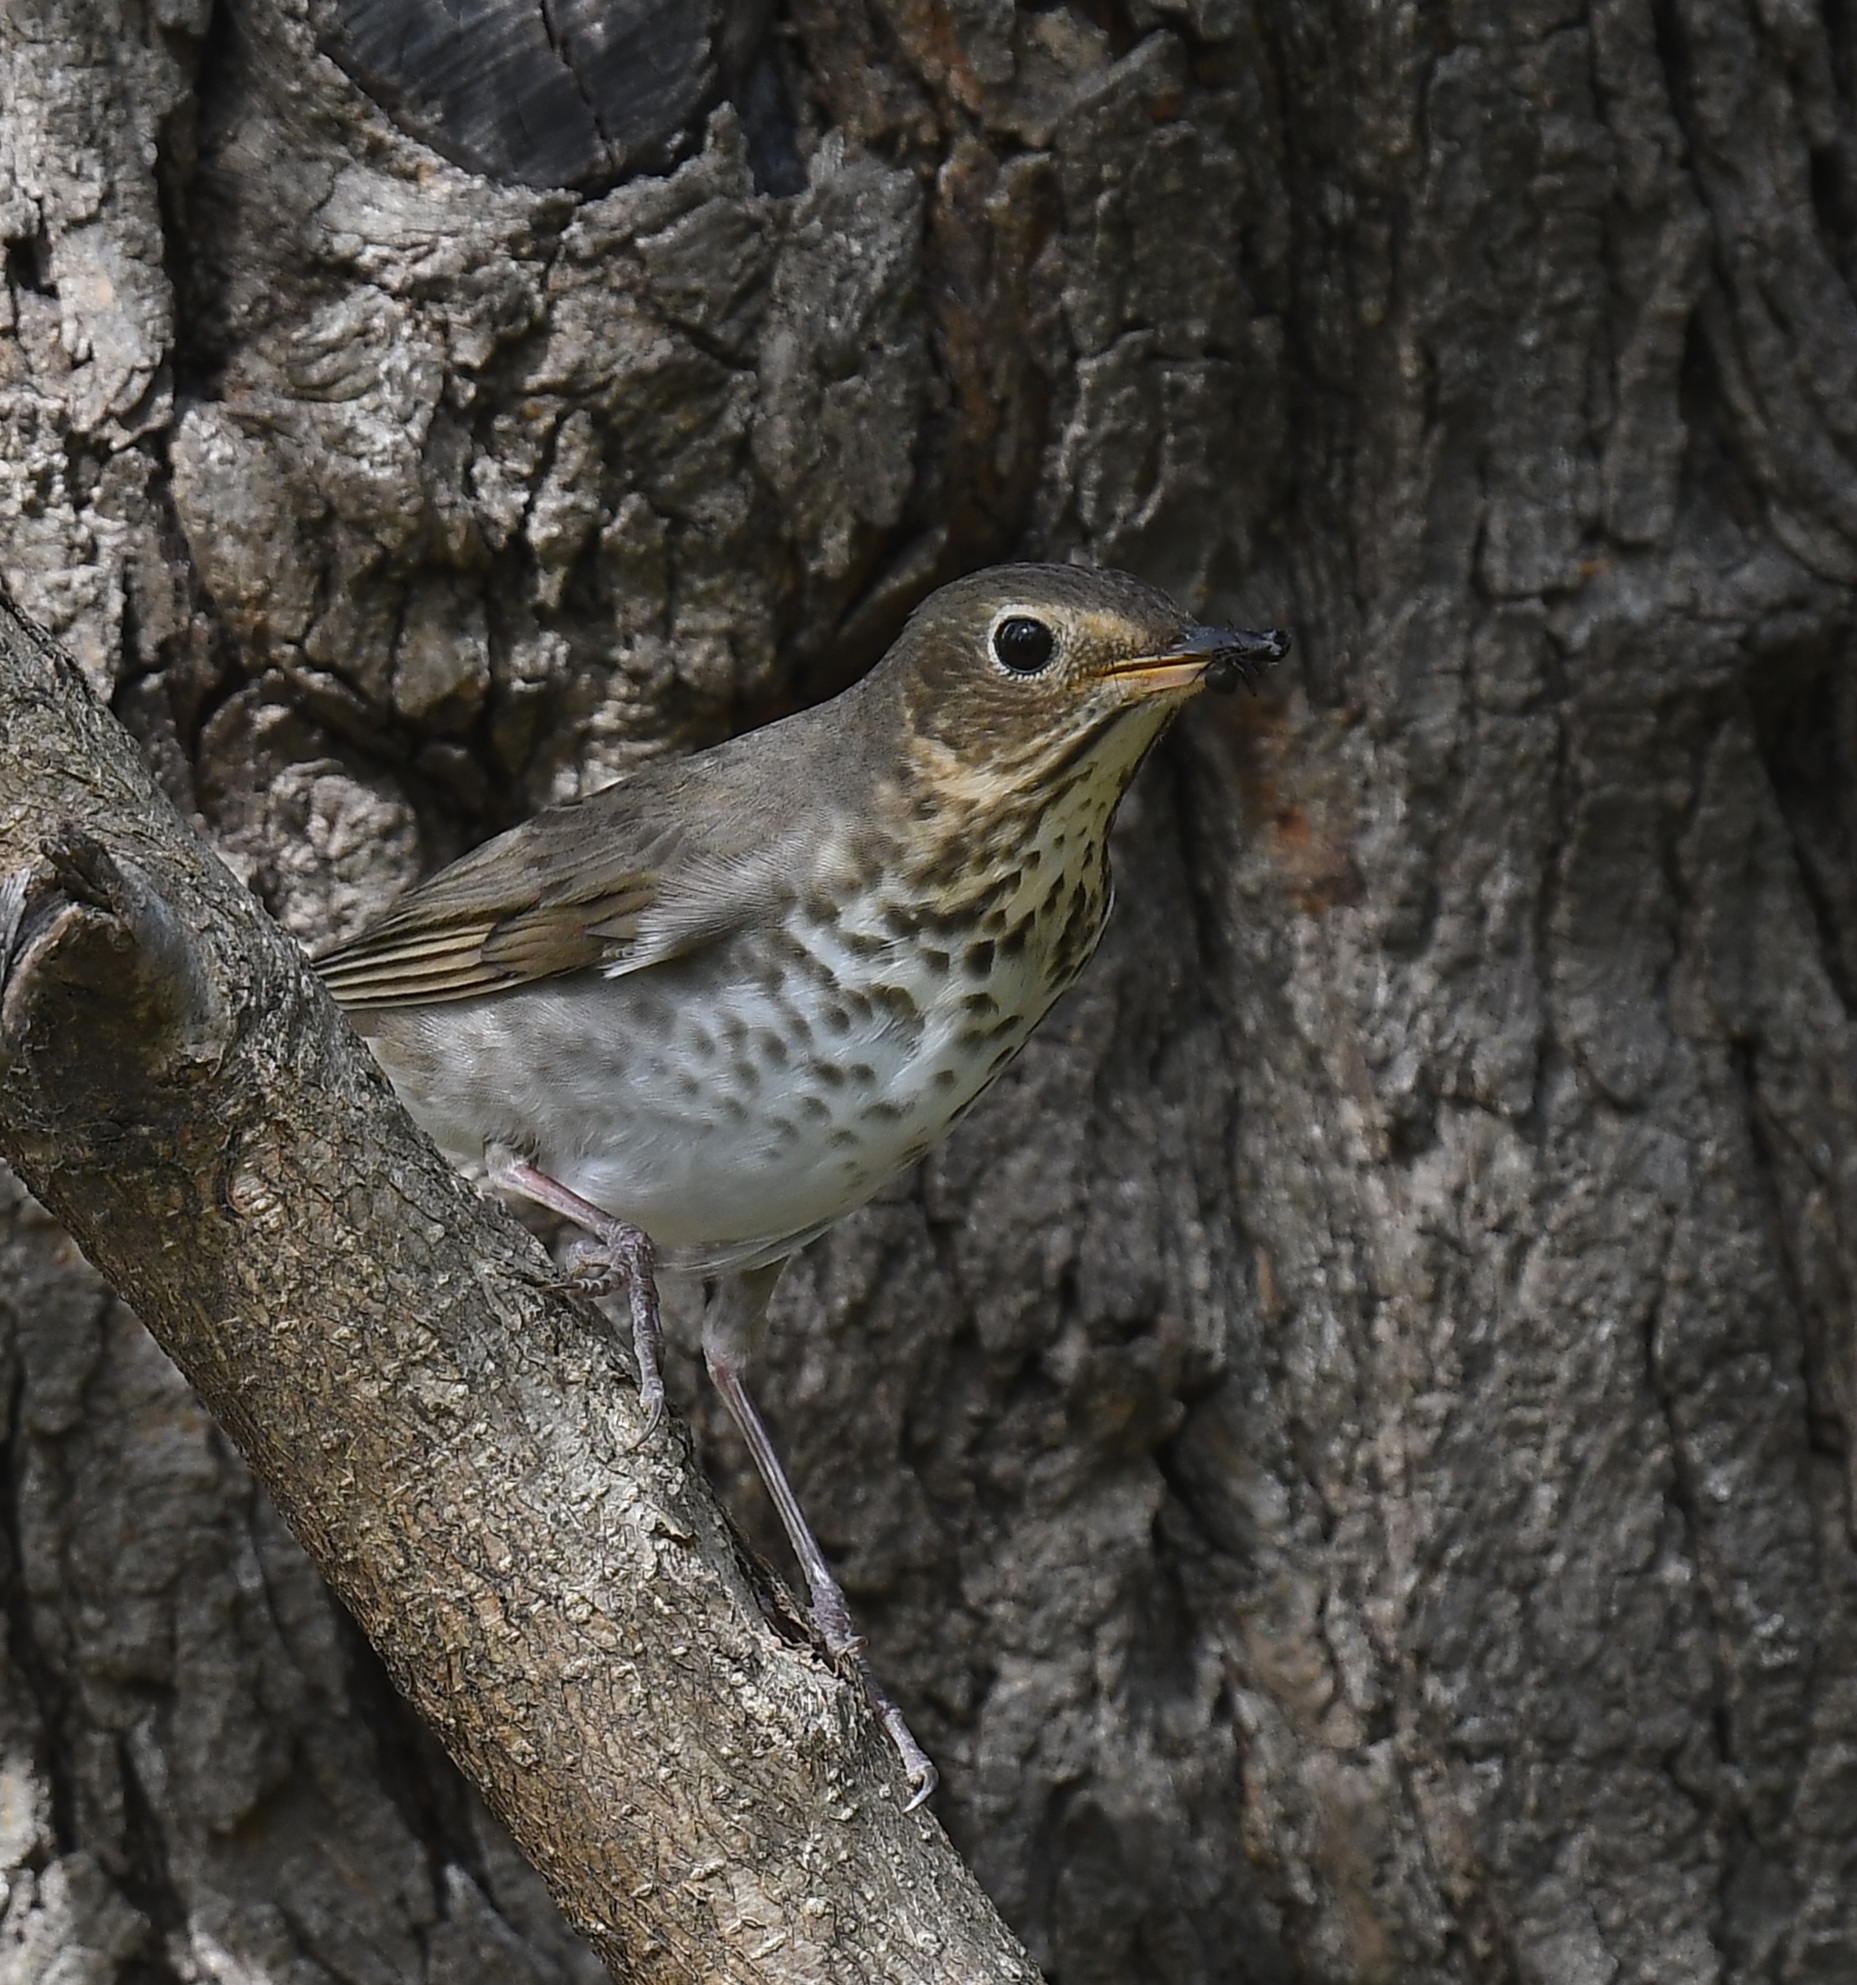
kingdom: Animalia
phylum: Chordata
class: Aves
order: Passeriformes
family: Turdidae
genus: Catharus
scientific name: Catharus ustulatus
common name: Swainson's thrush
